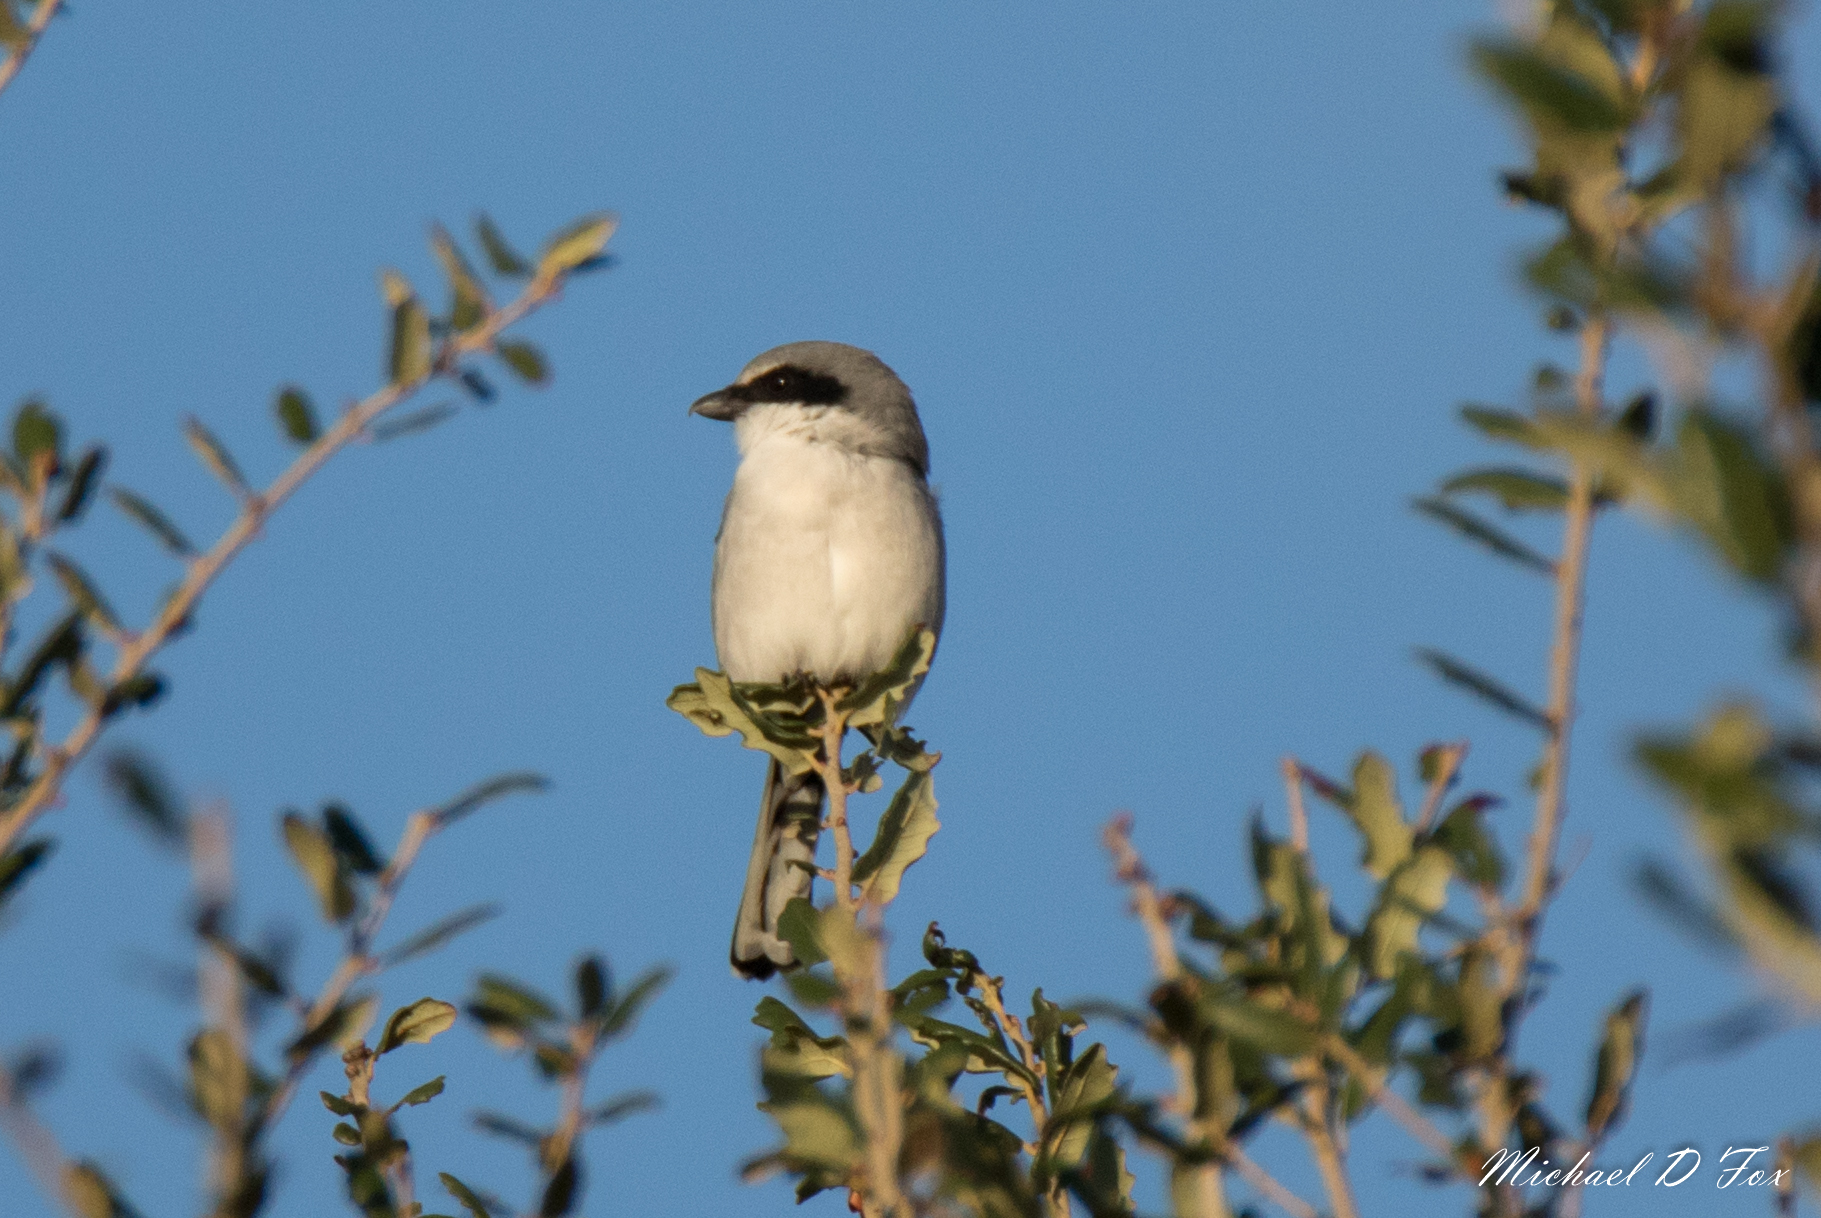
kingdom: Animalia
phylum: Chordata
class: Aves
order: Passeriformes
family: Laniidae
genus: Lanius
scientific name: Lanius ludovicianus
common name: Loggerhead shrike
